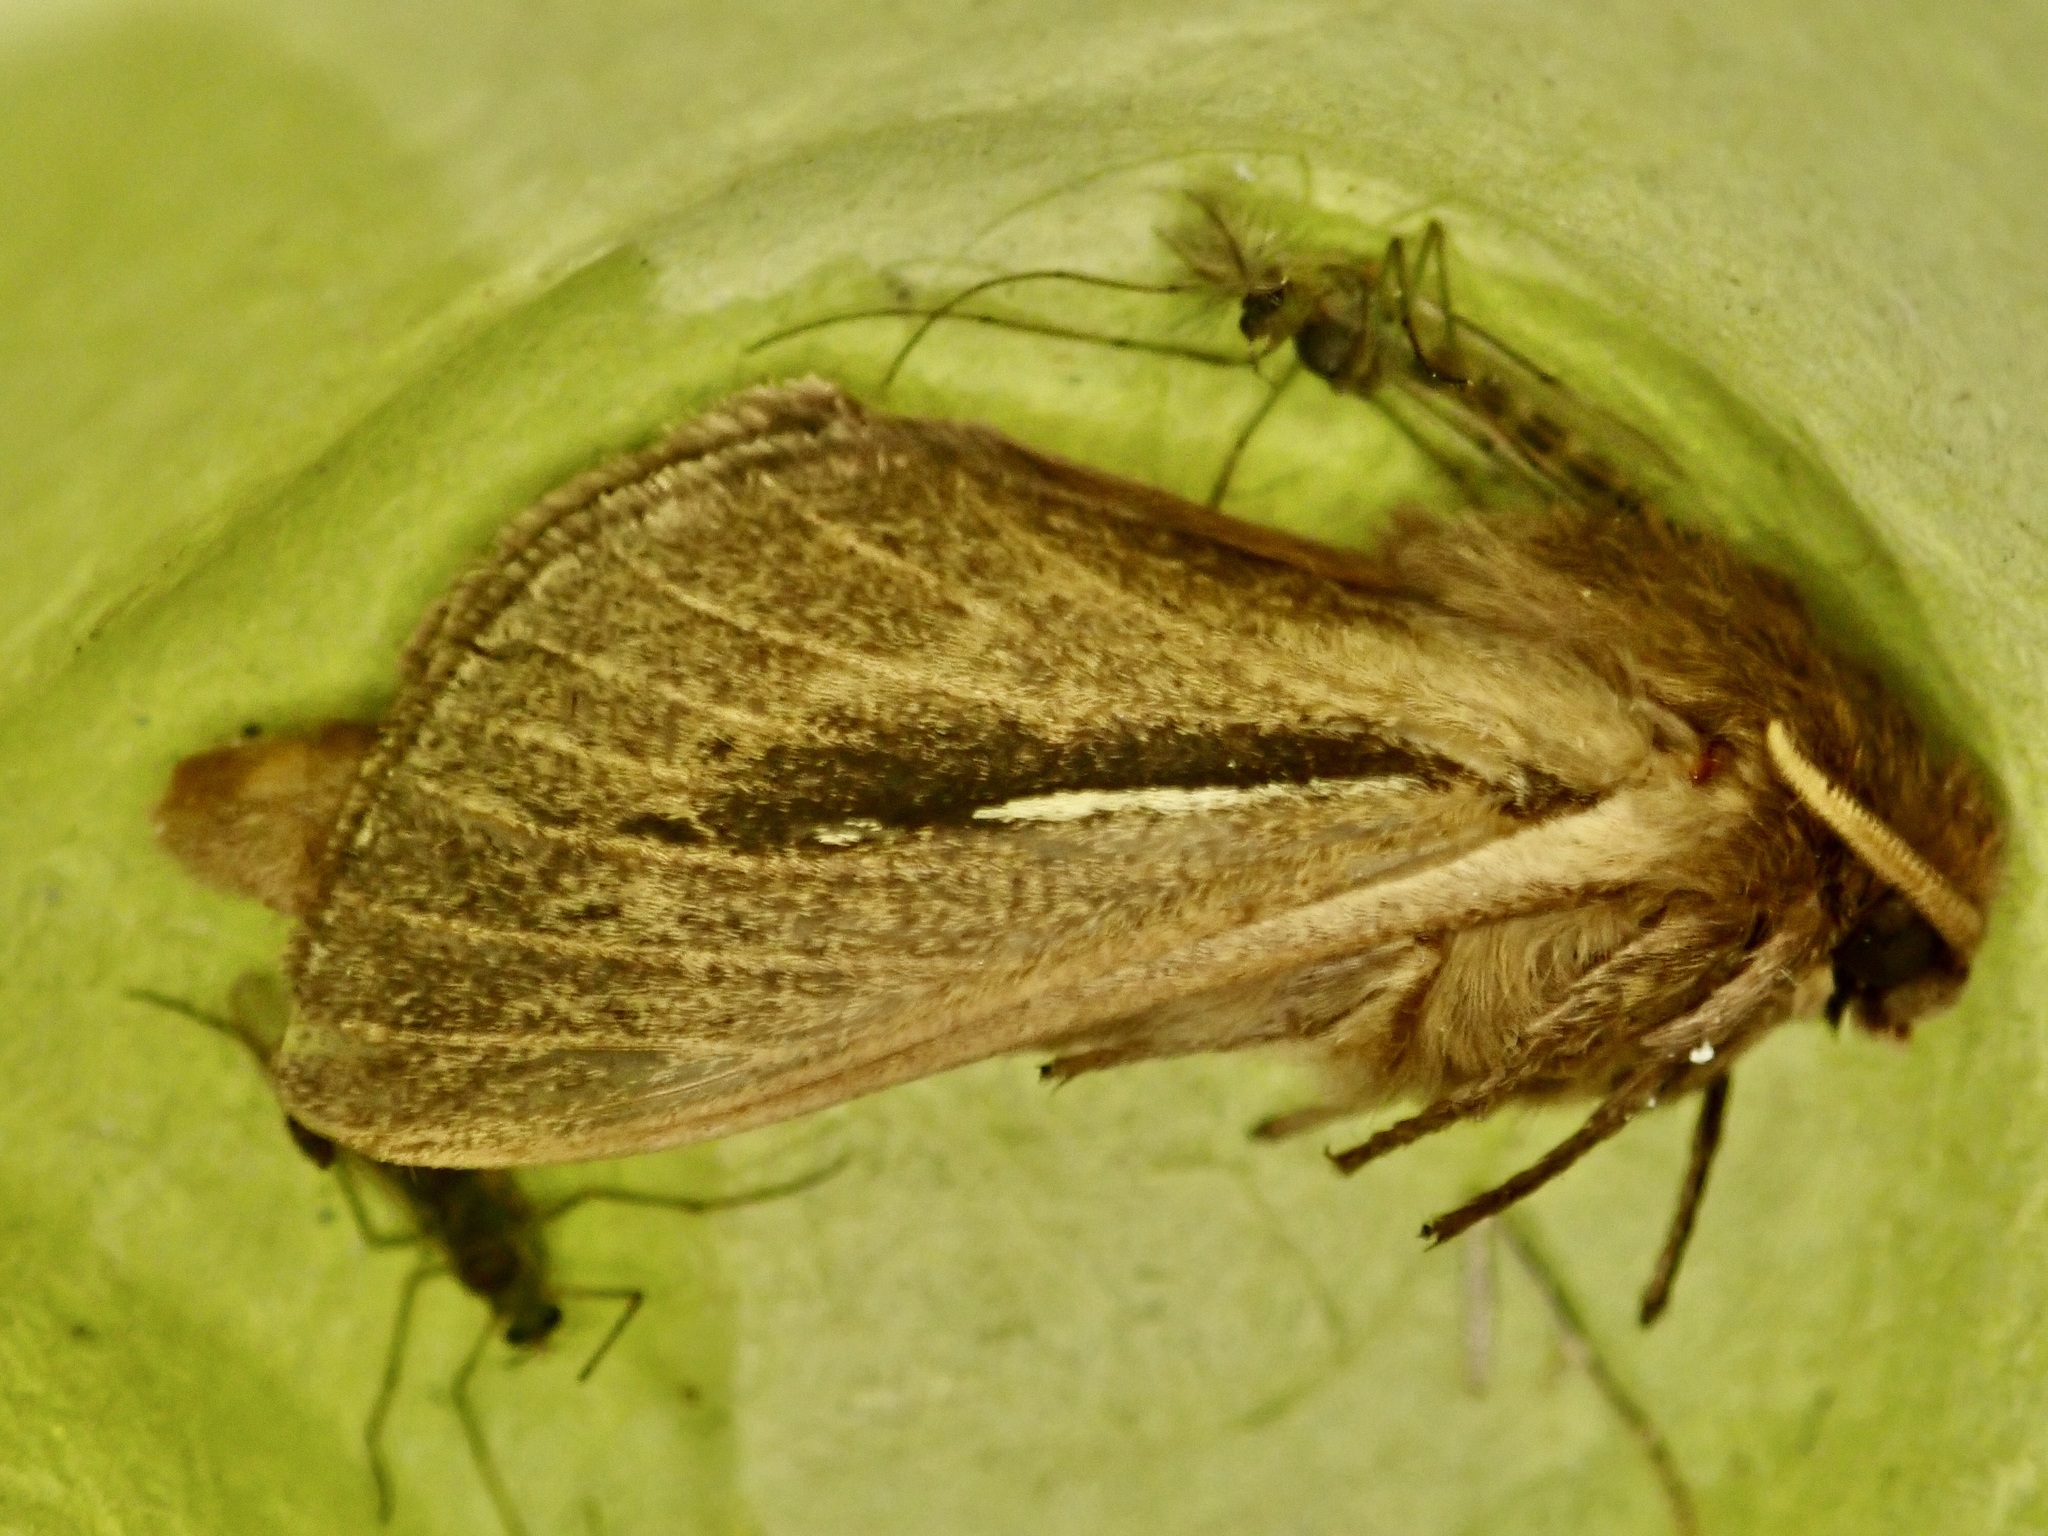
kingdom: Animalia
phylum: Arthropoda
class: Insecta
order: Lepidoptera
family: Hepialidae
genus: Wiseana
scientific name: Wiseana umbraculatus
